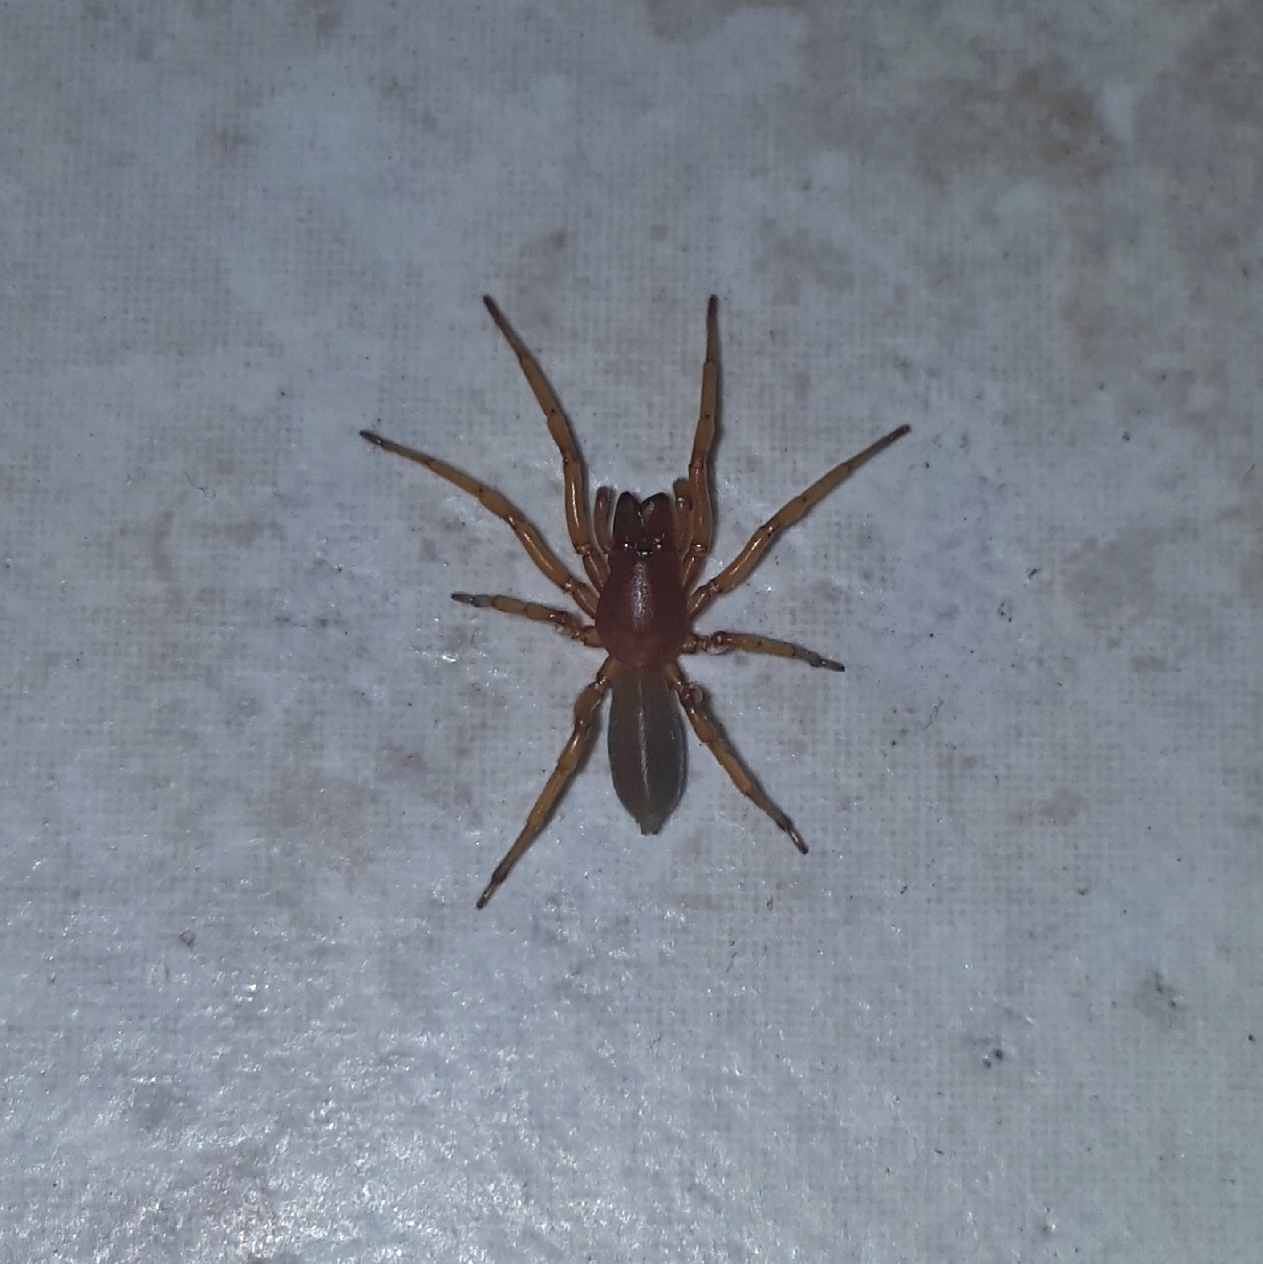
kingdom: Animalia
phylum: Arthropoda
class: Arachnida
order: Araneae
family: Dysderidae
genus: Dysdera
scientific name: Dysdera crocata
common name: Woodlouse spider
